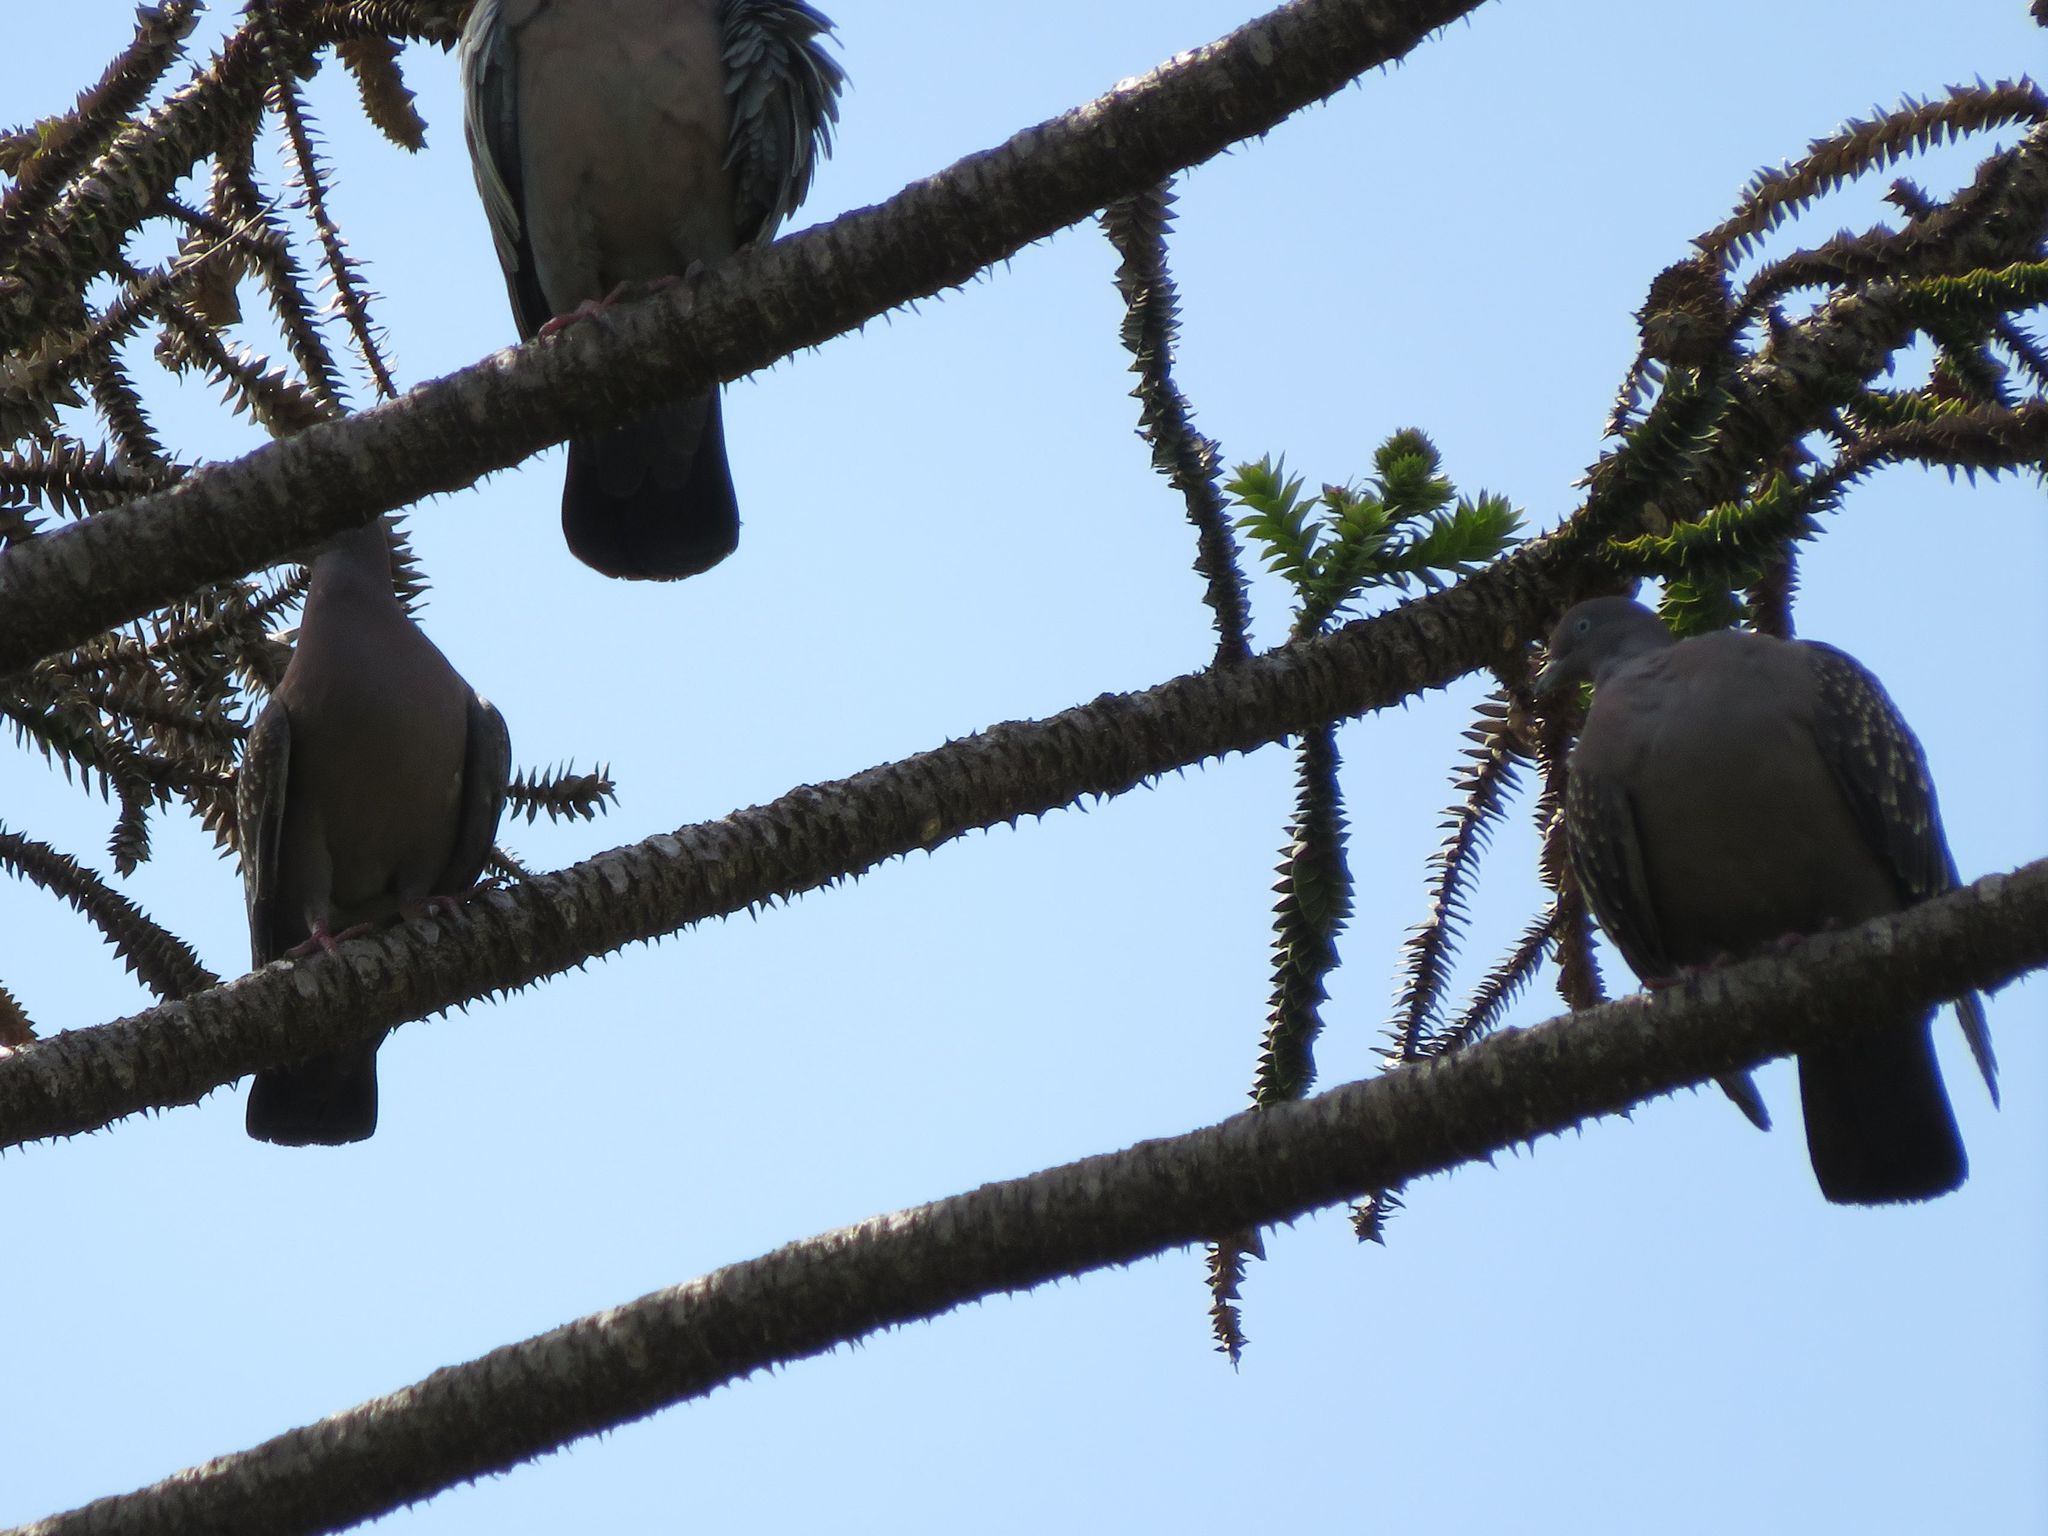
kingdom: Animalia
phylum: Chordata
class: Aves
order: Columbiformes
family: Columbidae
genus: Patagioenas
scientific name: Patagioenas maculosa
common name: Spot-winged pigeon
